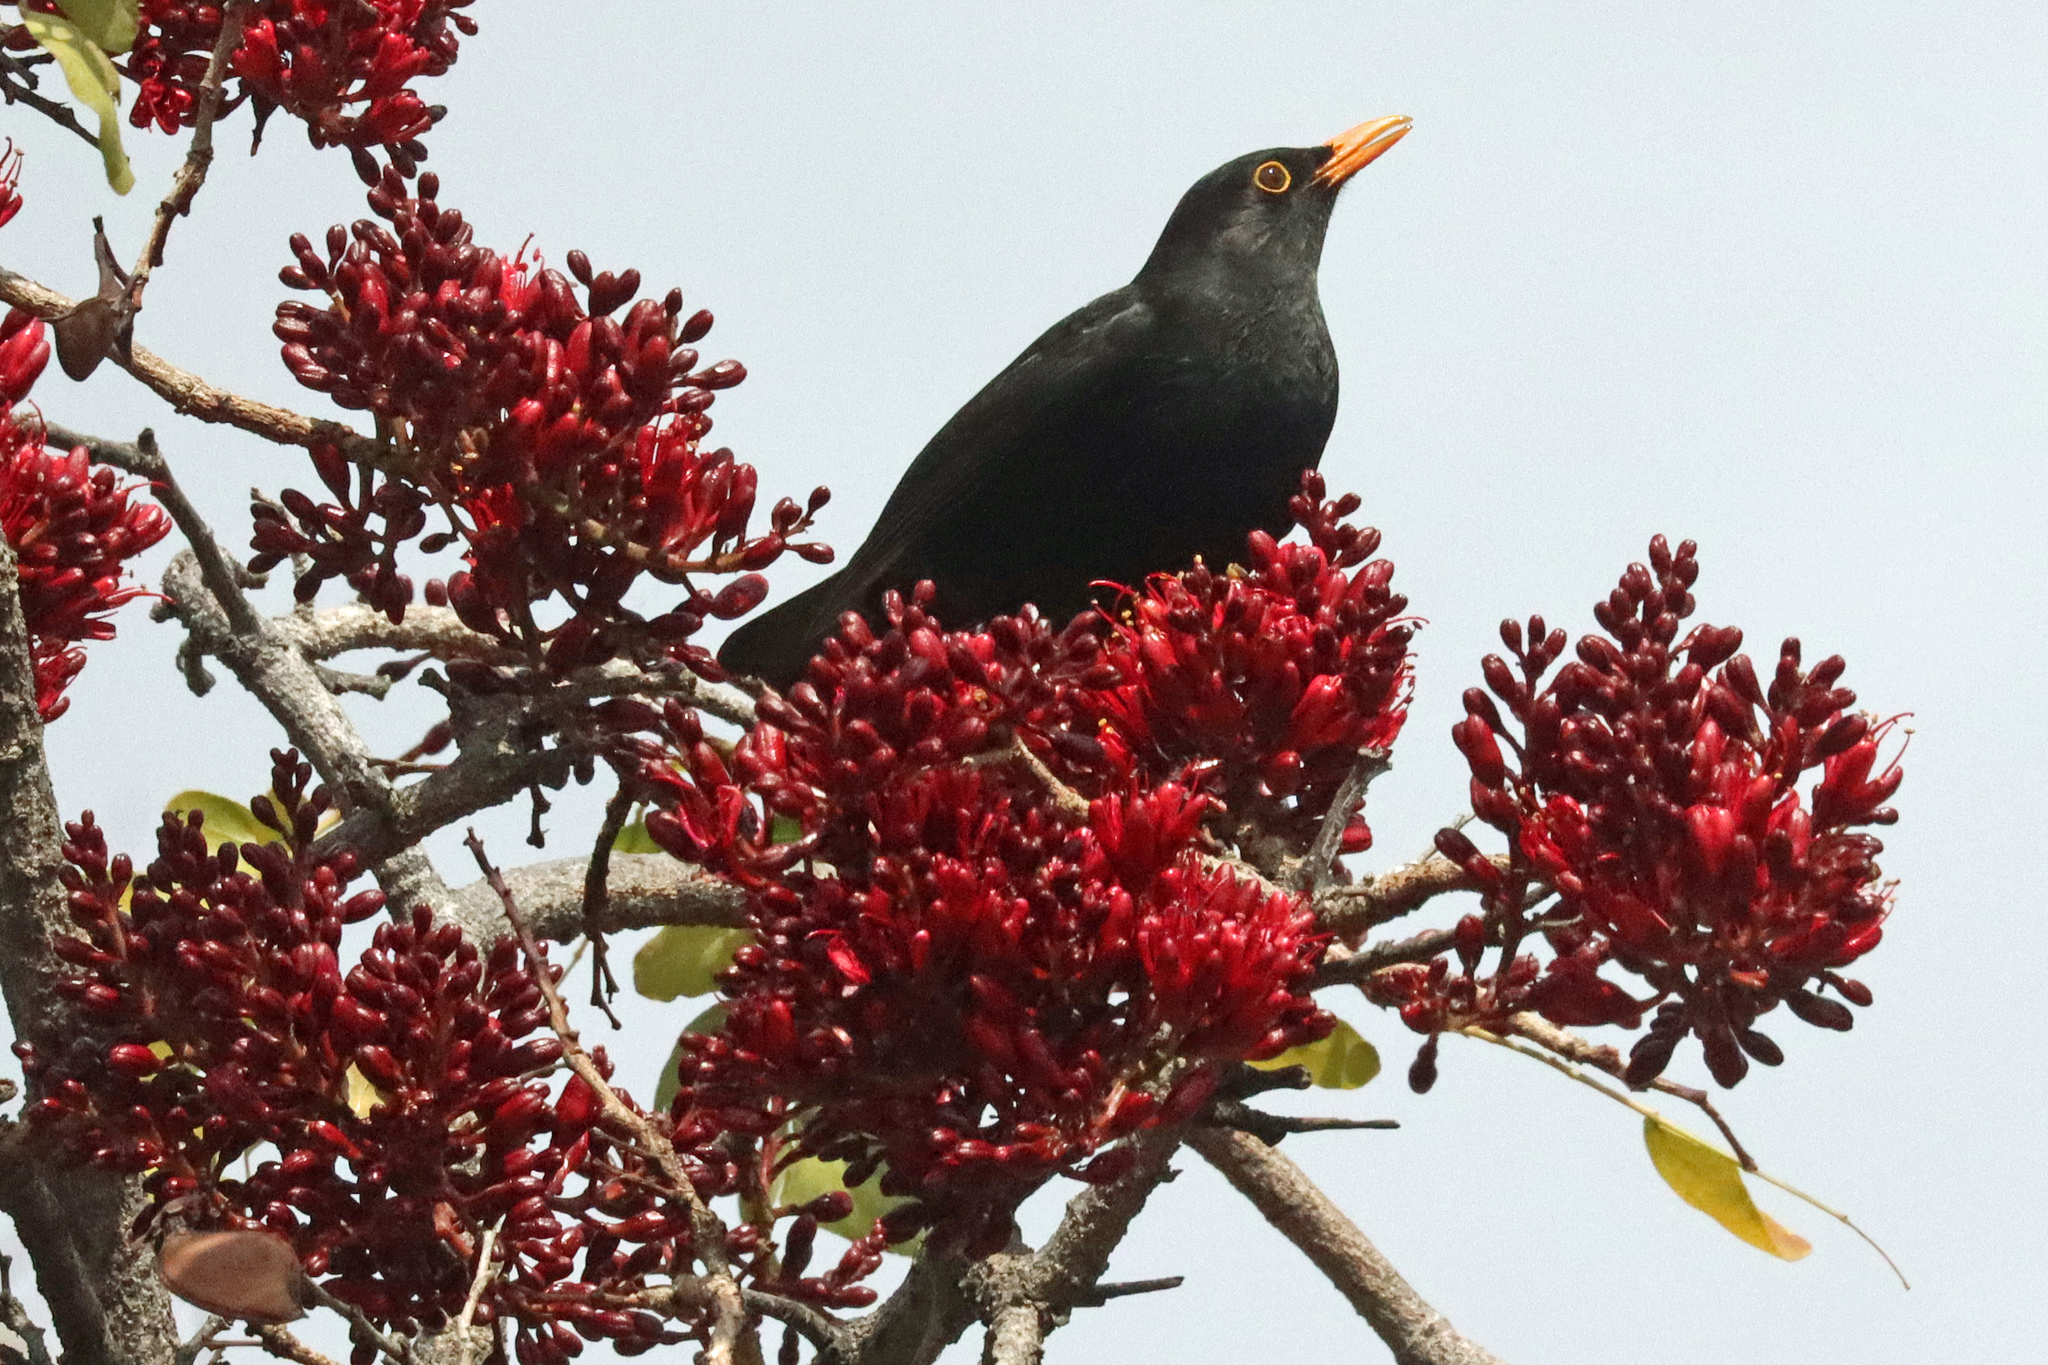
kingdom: Animalia
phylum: Chordata
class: Aves
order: Passeriformes
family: Turdidae
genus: Turdus
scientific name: Turdus merula
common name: Common blackbird
